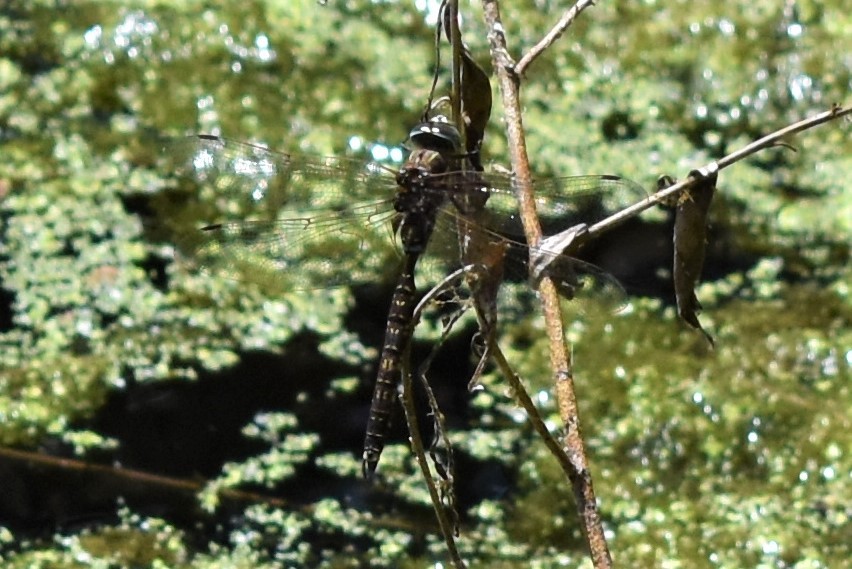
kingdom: Animalia
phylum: Arthropoda
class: Insecta
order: Odonata
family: Aeshnidae
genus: Aeshna
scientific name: Aeshna brevistyla
